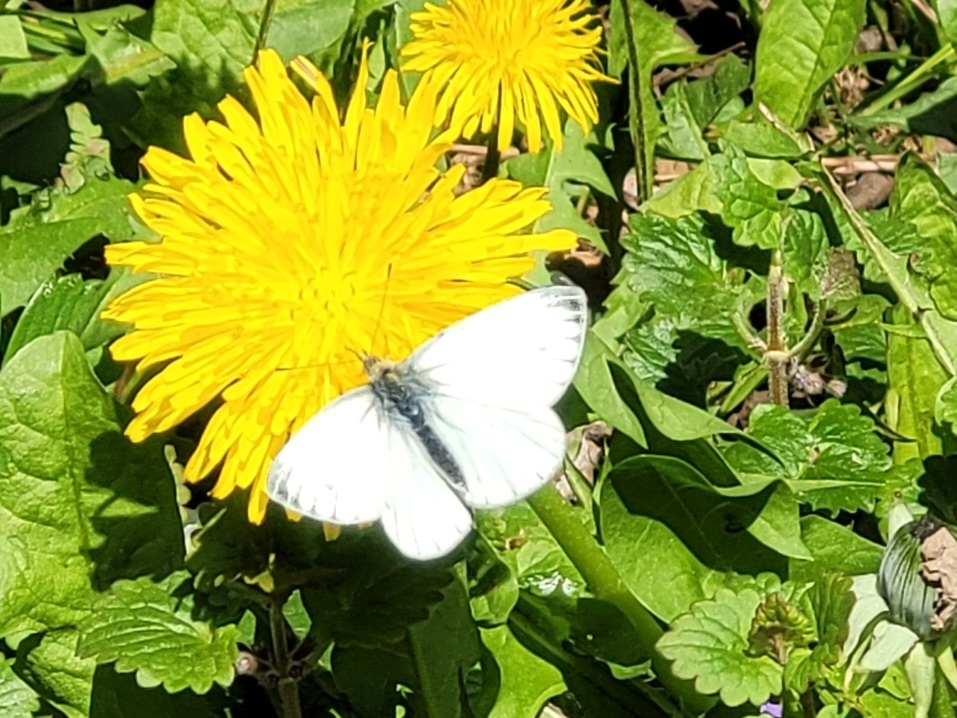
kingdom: Animalia
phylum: Arthropoda
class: Insecta
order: Lepidoptera
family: Pieridae
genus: Pieris
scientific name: Pieris napi
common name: Green-veined white
